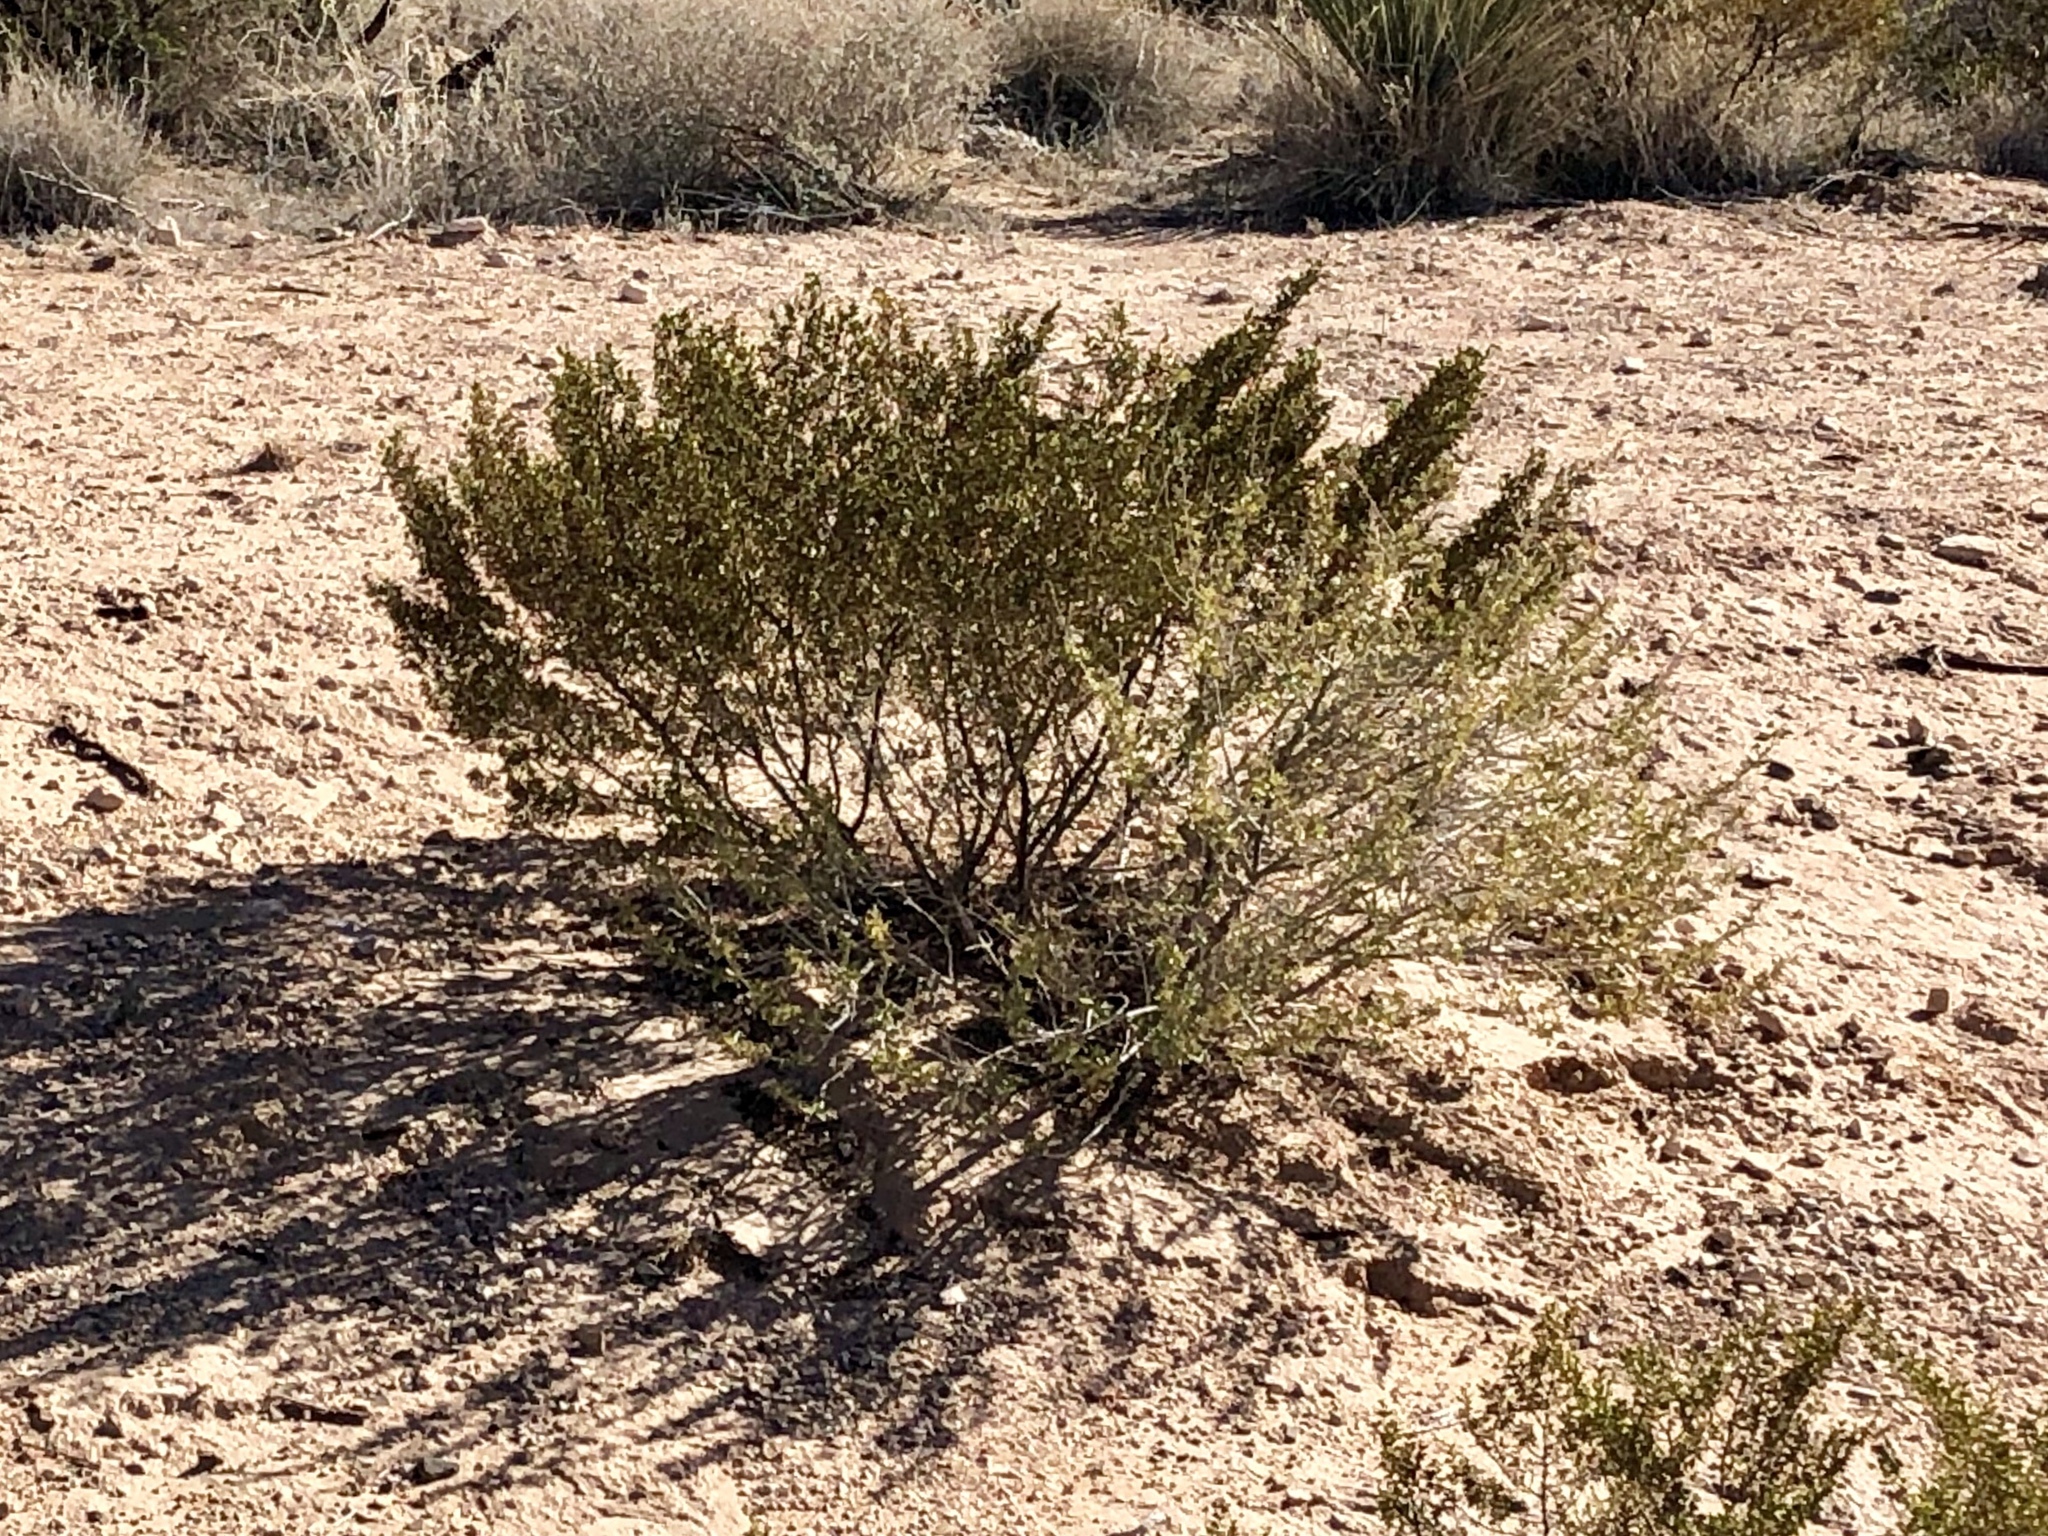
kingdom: Plantae
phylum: Tracheophyta
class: Magnoliopsida
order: Zygophyllales
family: Zygophyllaceae
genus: Larrea
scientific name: Larrea tridentata
